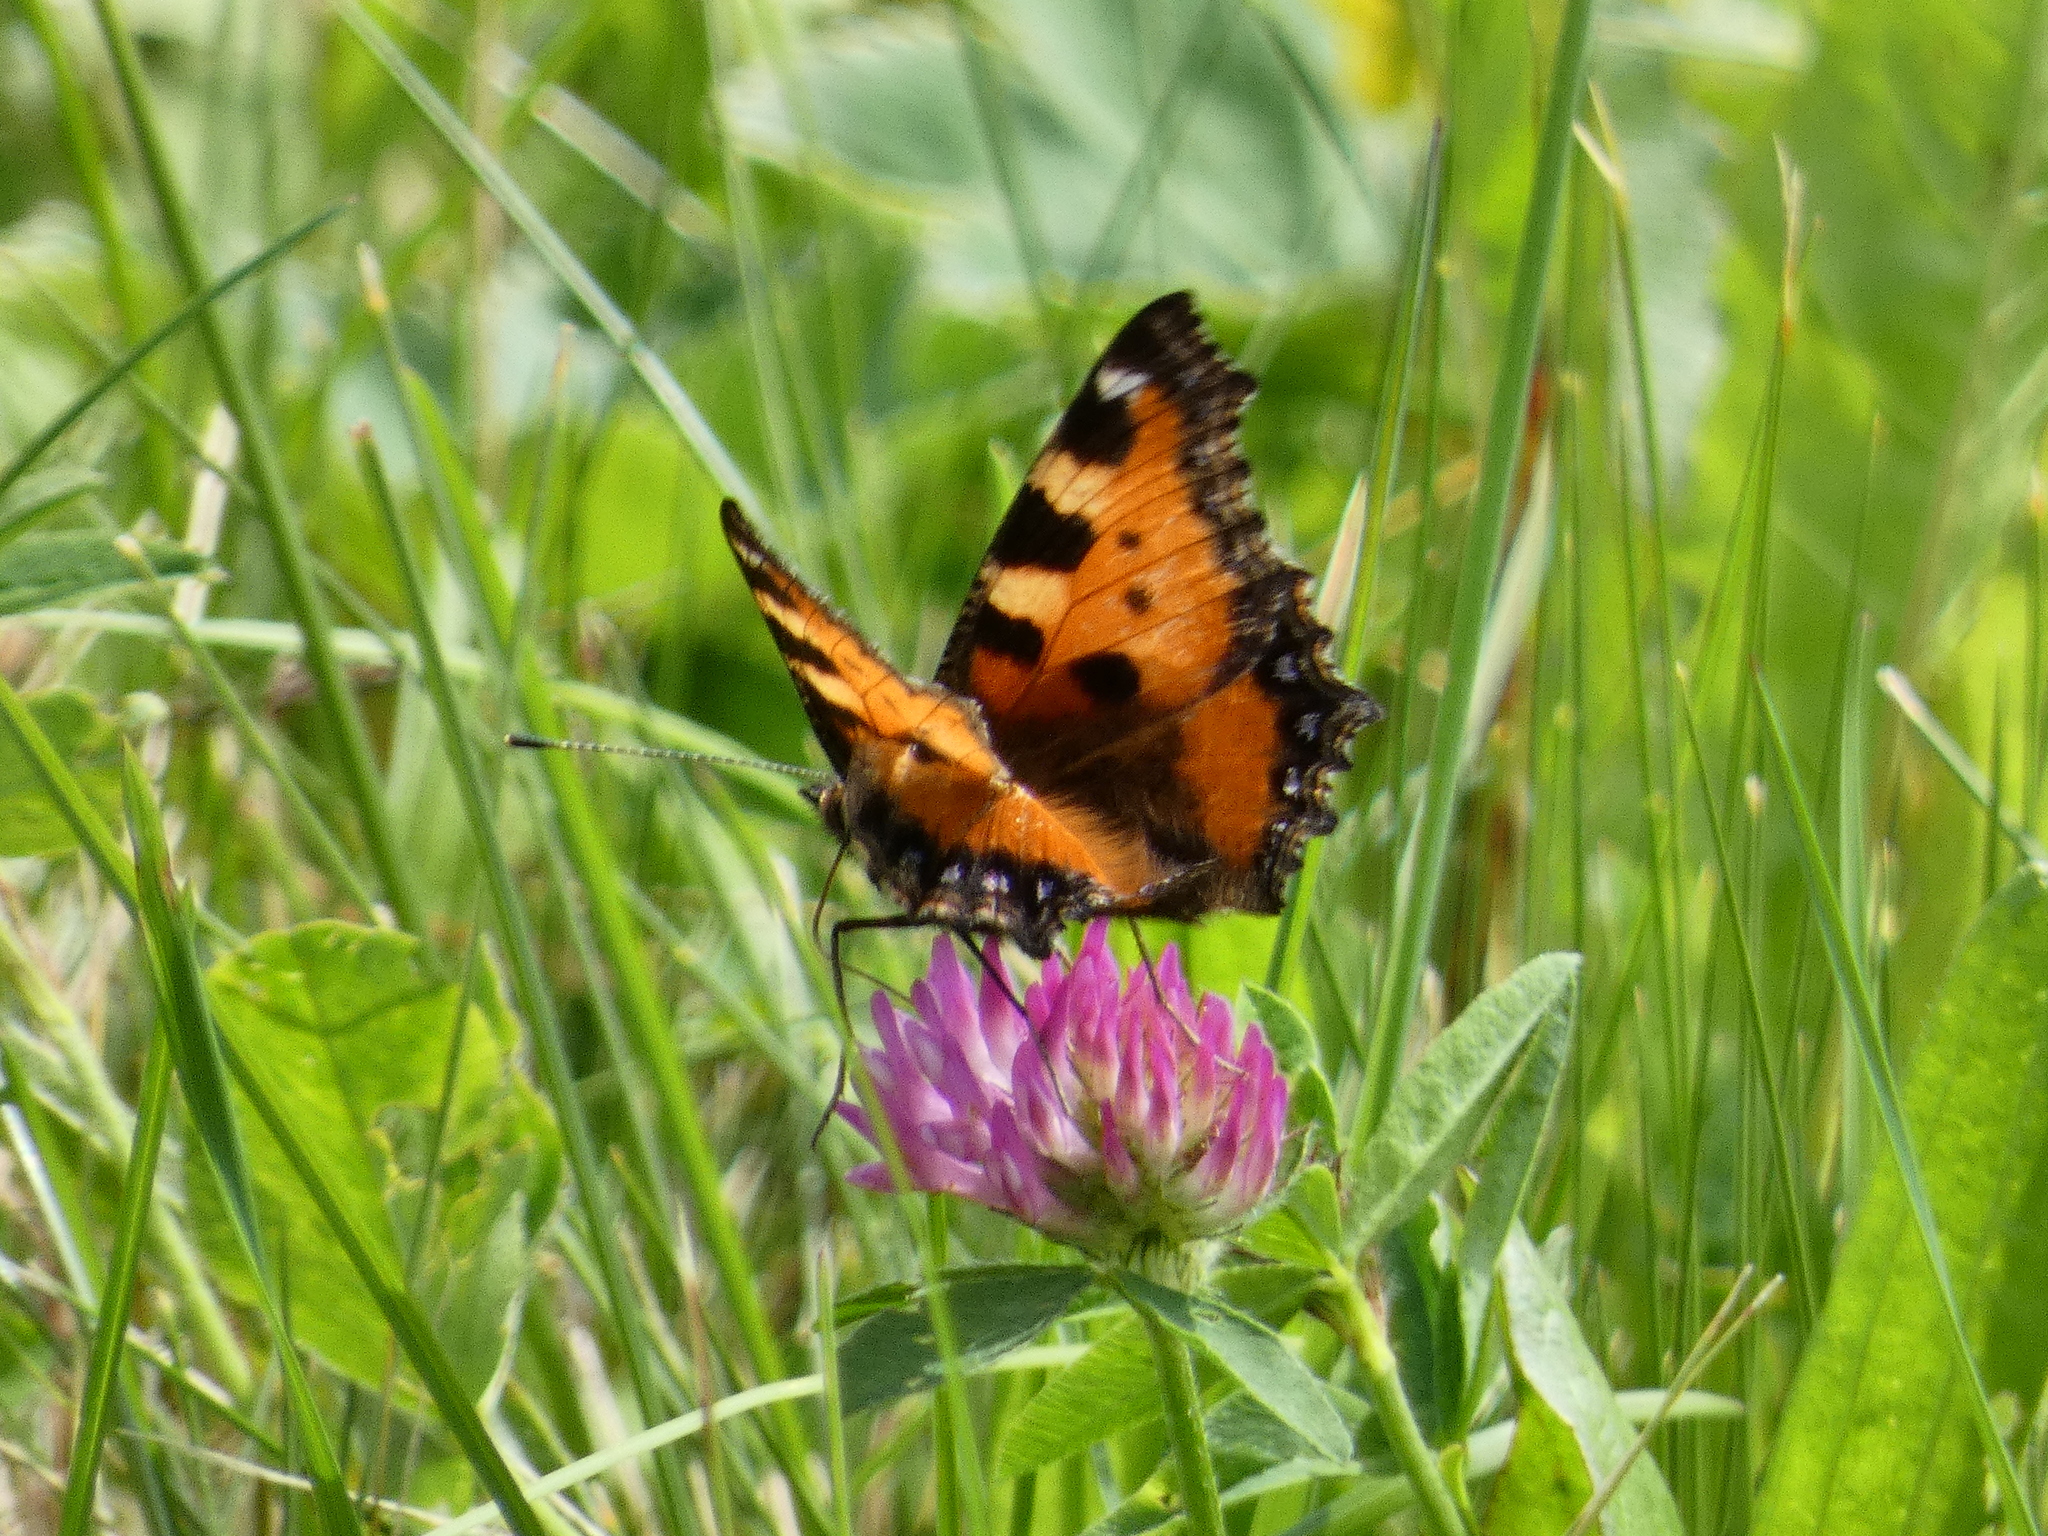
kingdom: Animalia
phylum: Arthropoda
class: Insecta
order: Lepidoptera
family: Nymphalidae
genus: Aglais
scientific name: Aglais urticae
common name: Small tortoiseshell
